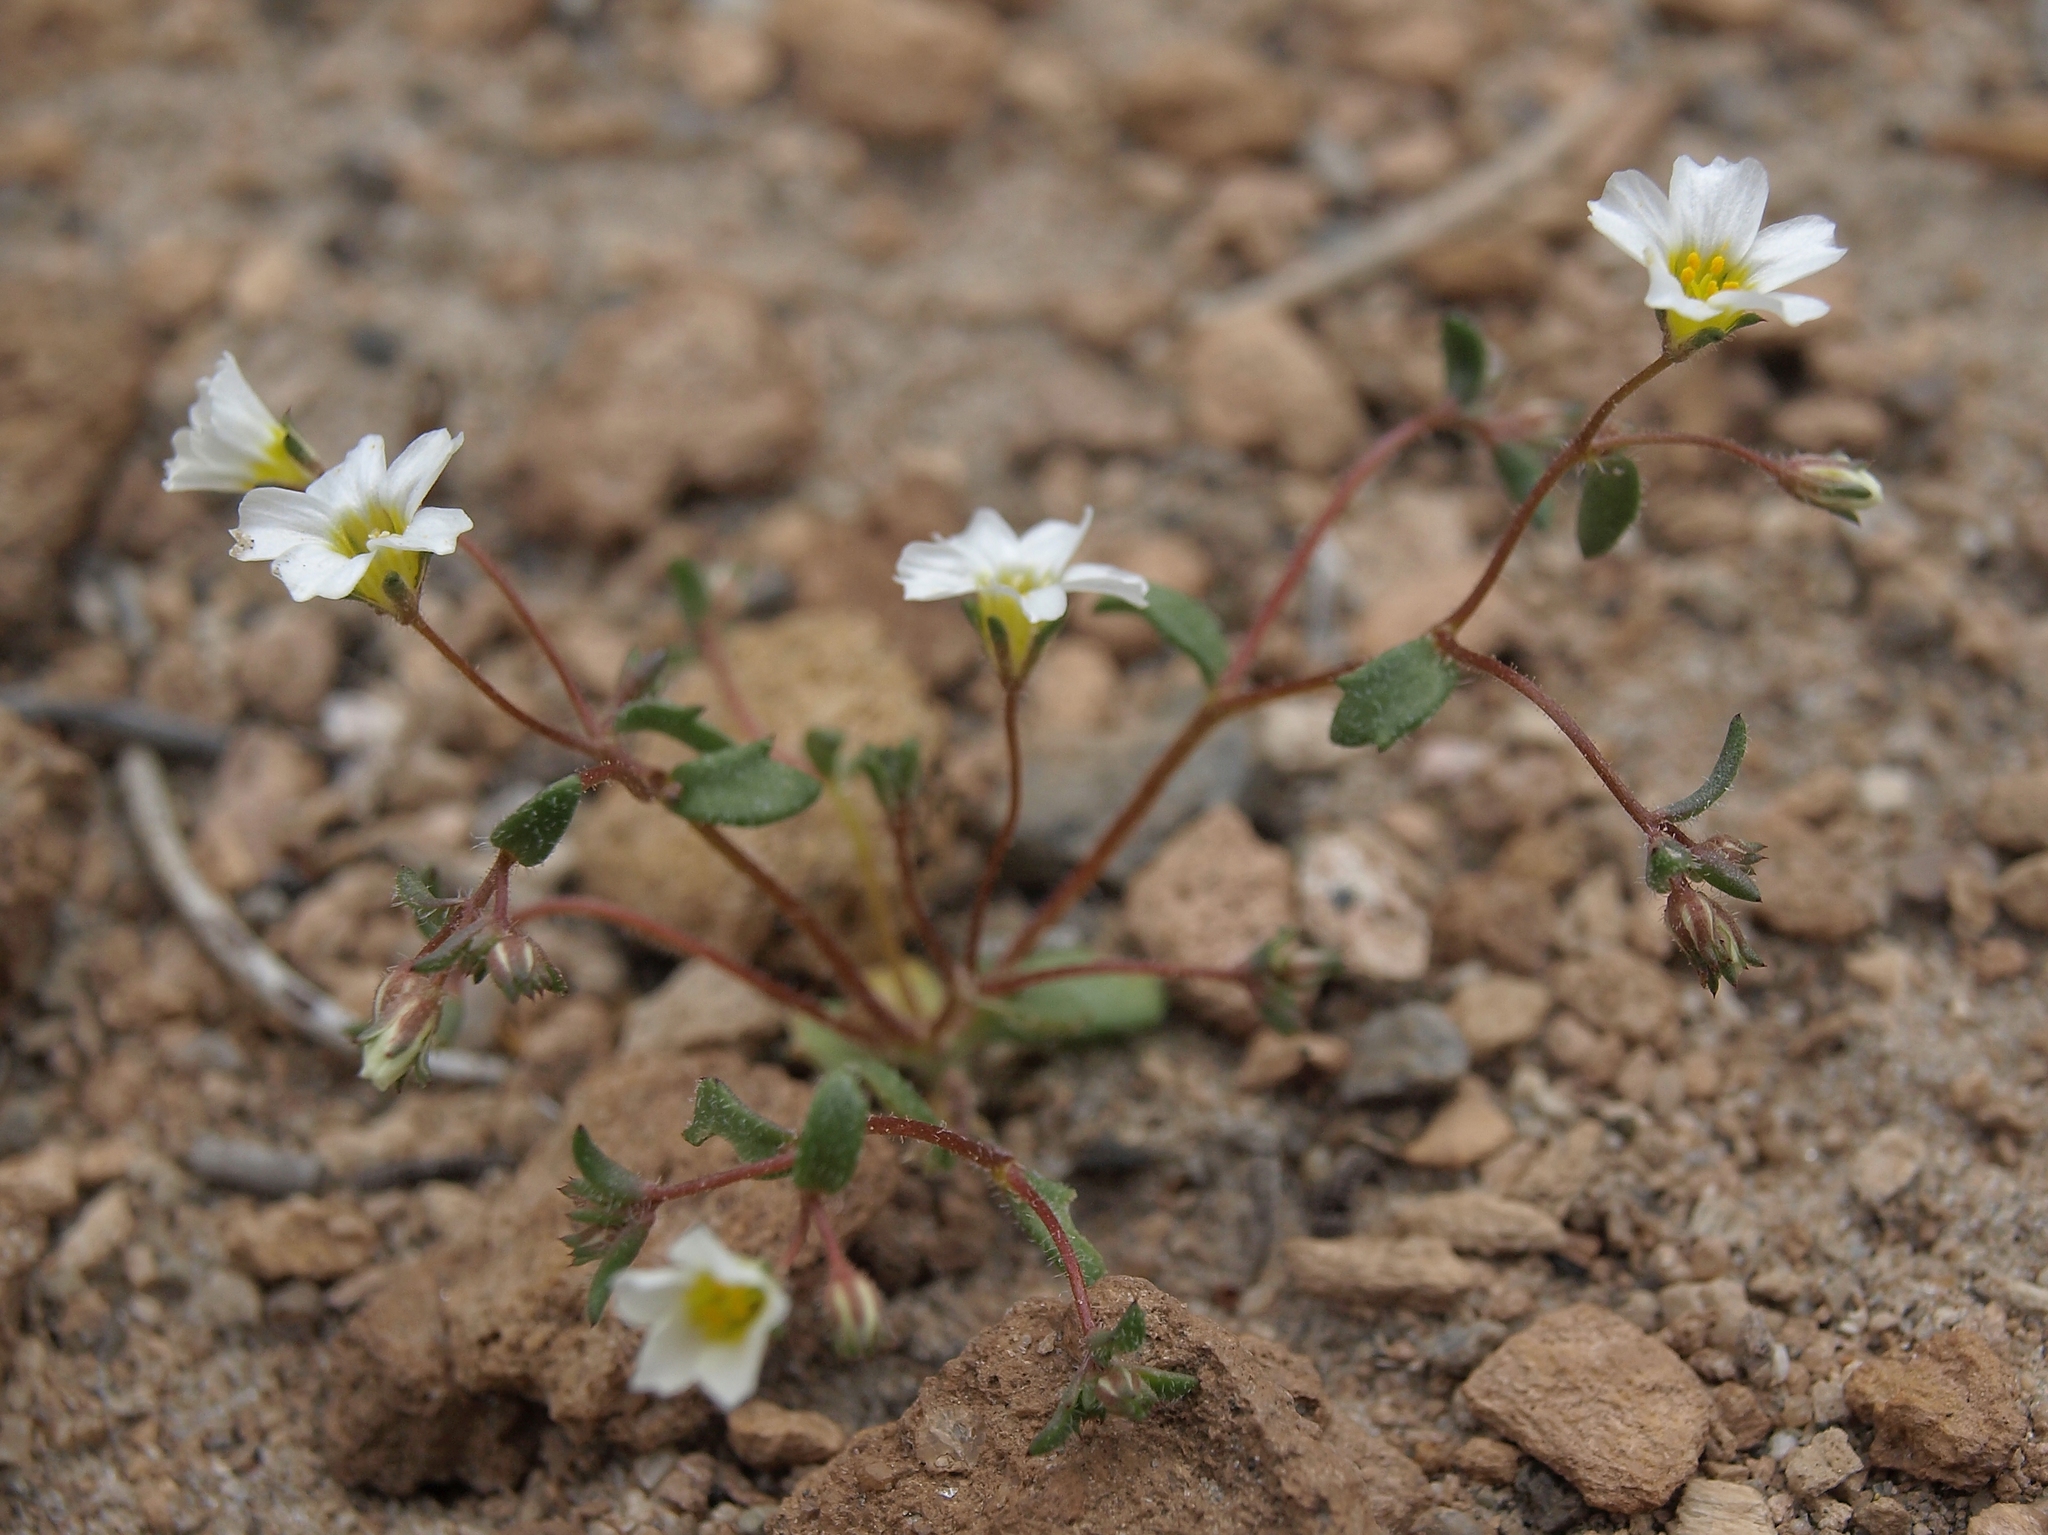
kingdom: Plantae
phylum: Tracheophyta
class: Magnoliopsida
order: Ericales
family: Polemoniaceae
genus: Linanthus
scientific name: Linanthus inyoensis
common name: Inyo gilia
